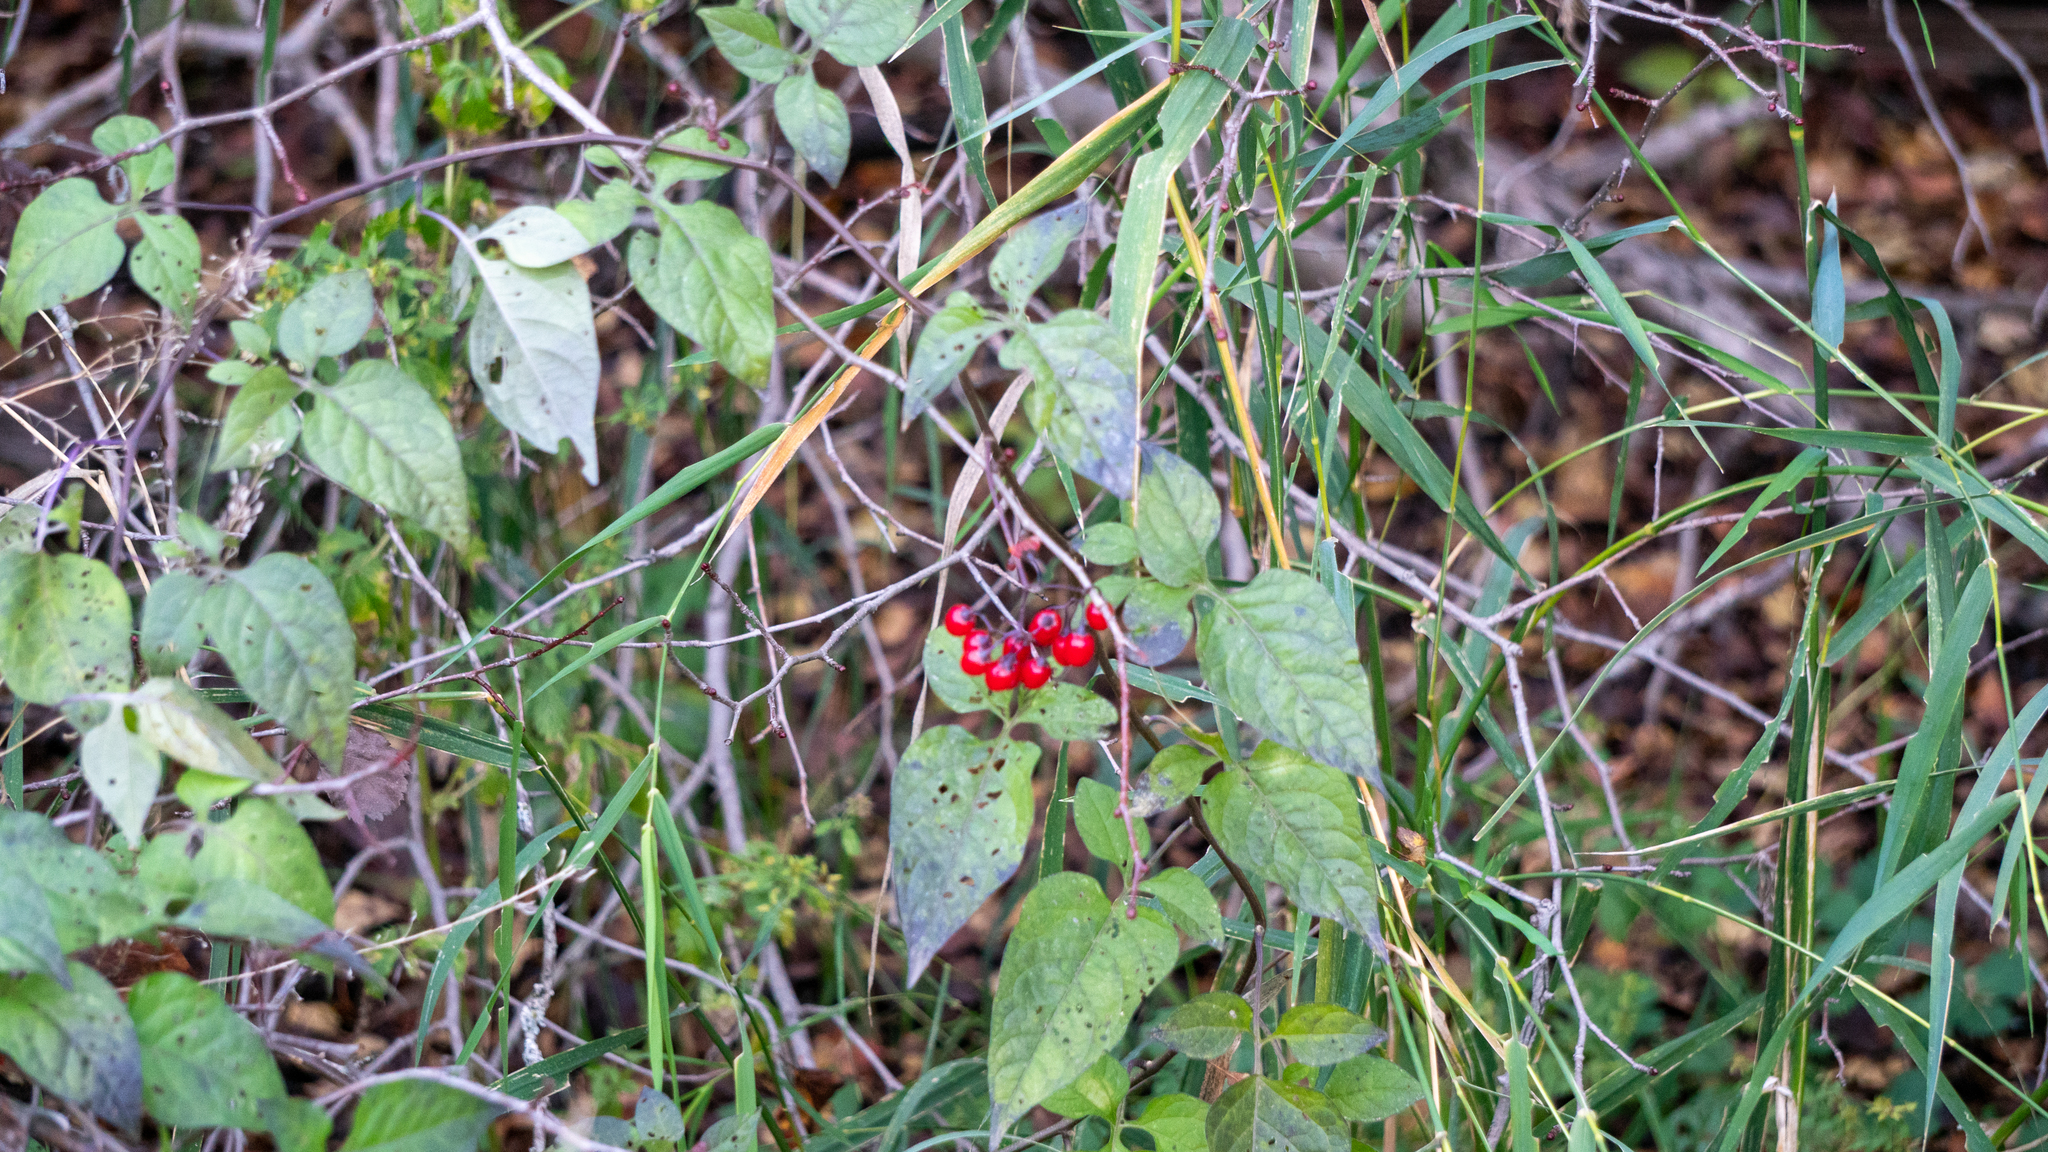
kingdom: Plantae
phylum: Tracheophyta
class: Magnoliopsida
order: Solanales
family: Solanaceae
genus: Solanum
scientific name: Solanum dulcamara
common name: Climbing nightshade
